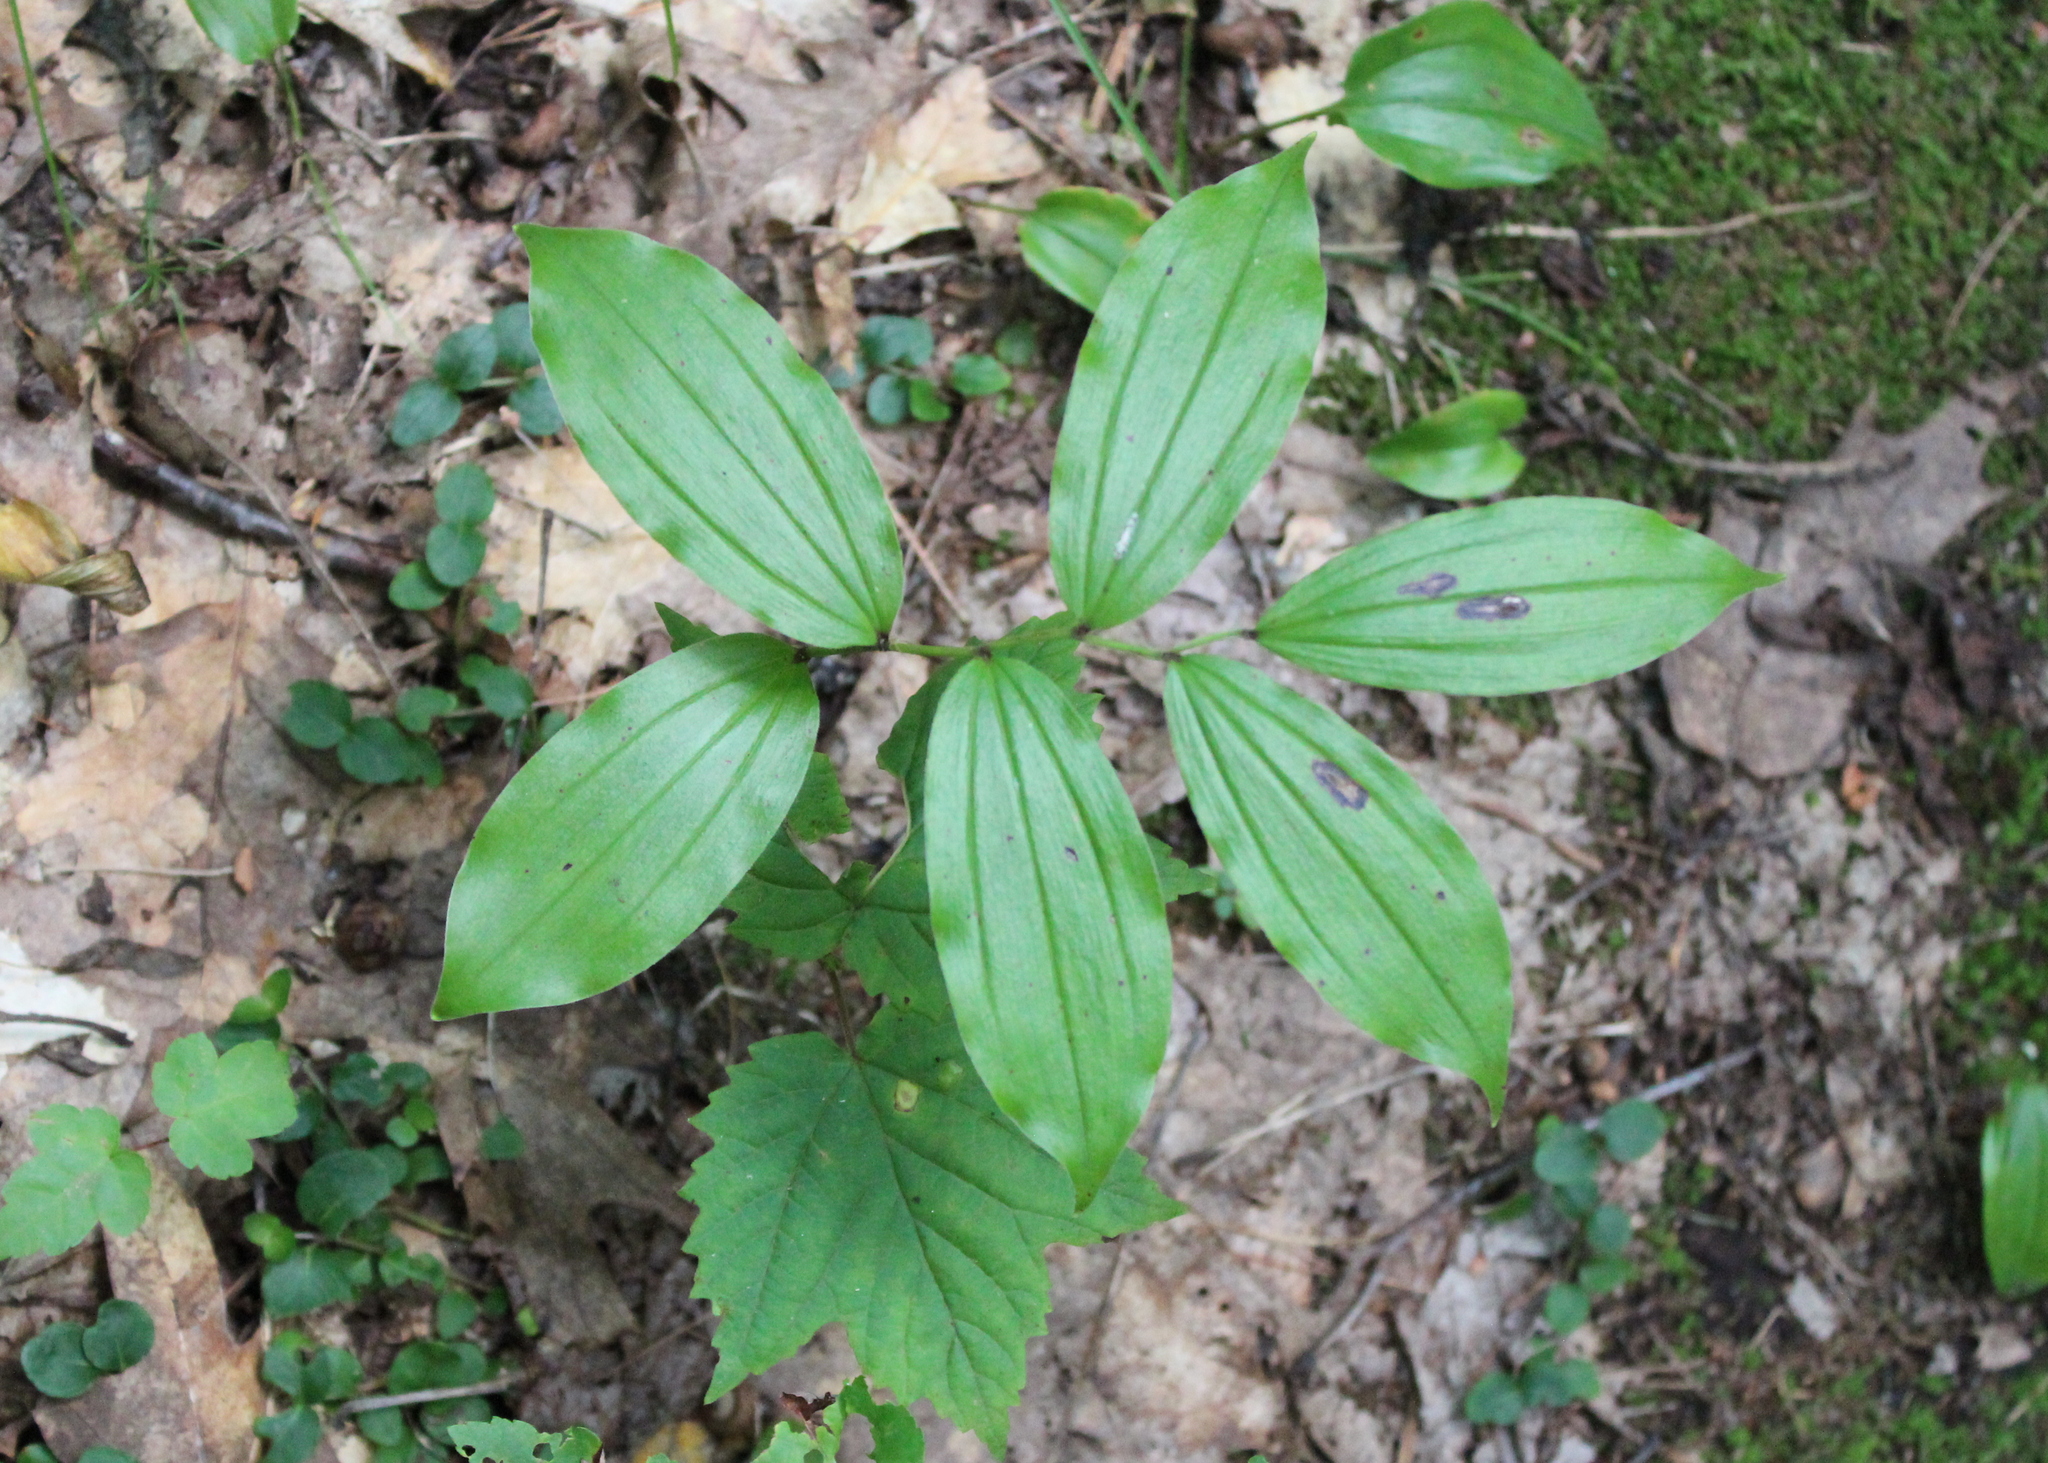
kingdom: Plantae
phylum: Tracheophyta
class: Liliopsida
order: Asparagales
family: Asparagaceae
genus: Maianthemum
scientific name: Maianthemum racemosum
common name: False spikenard
